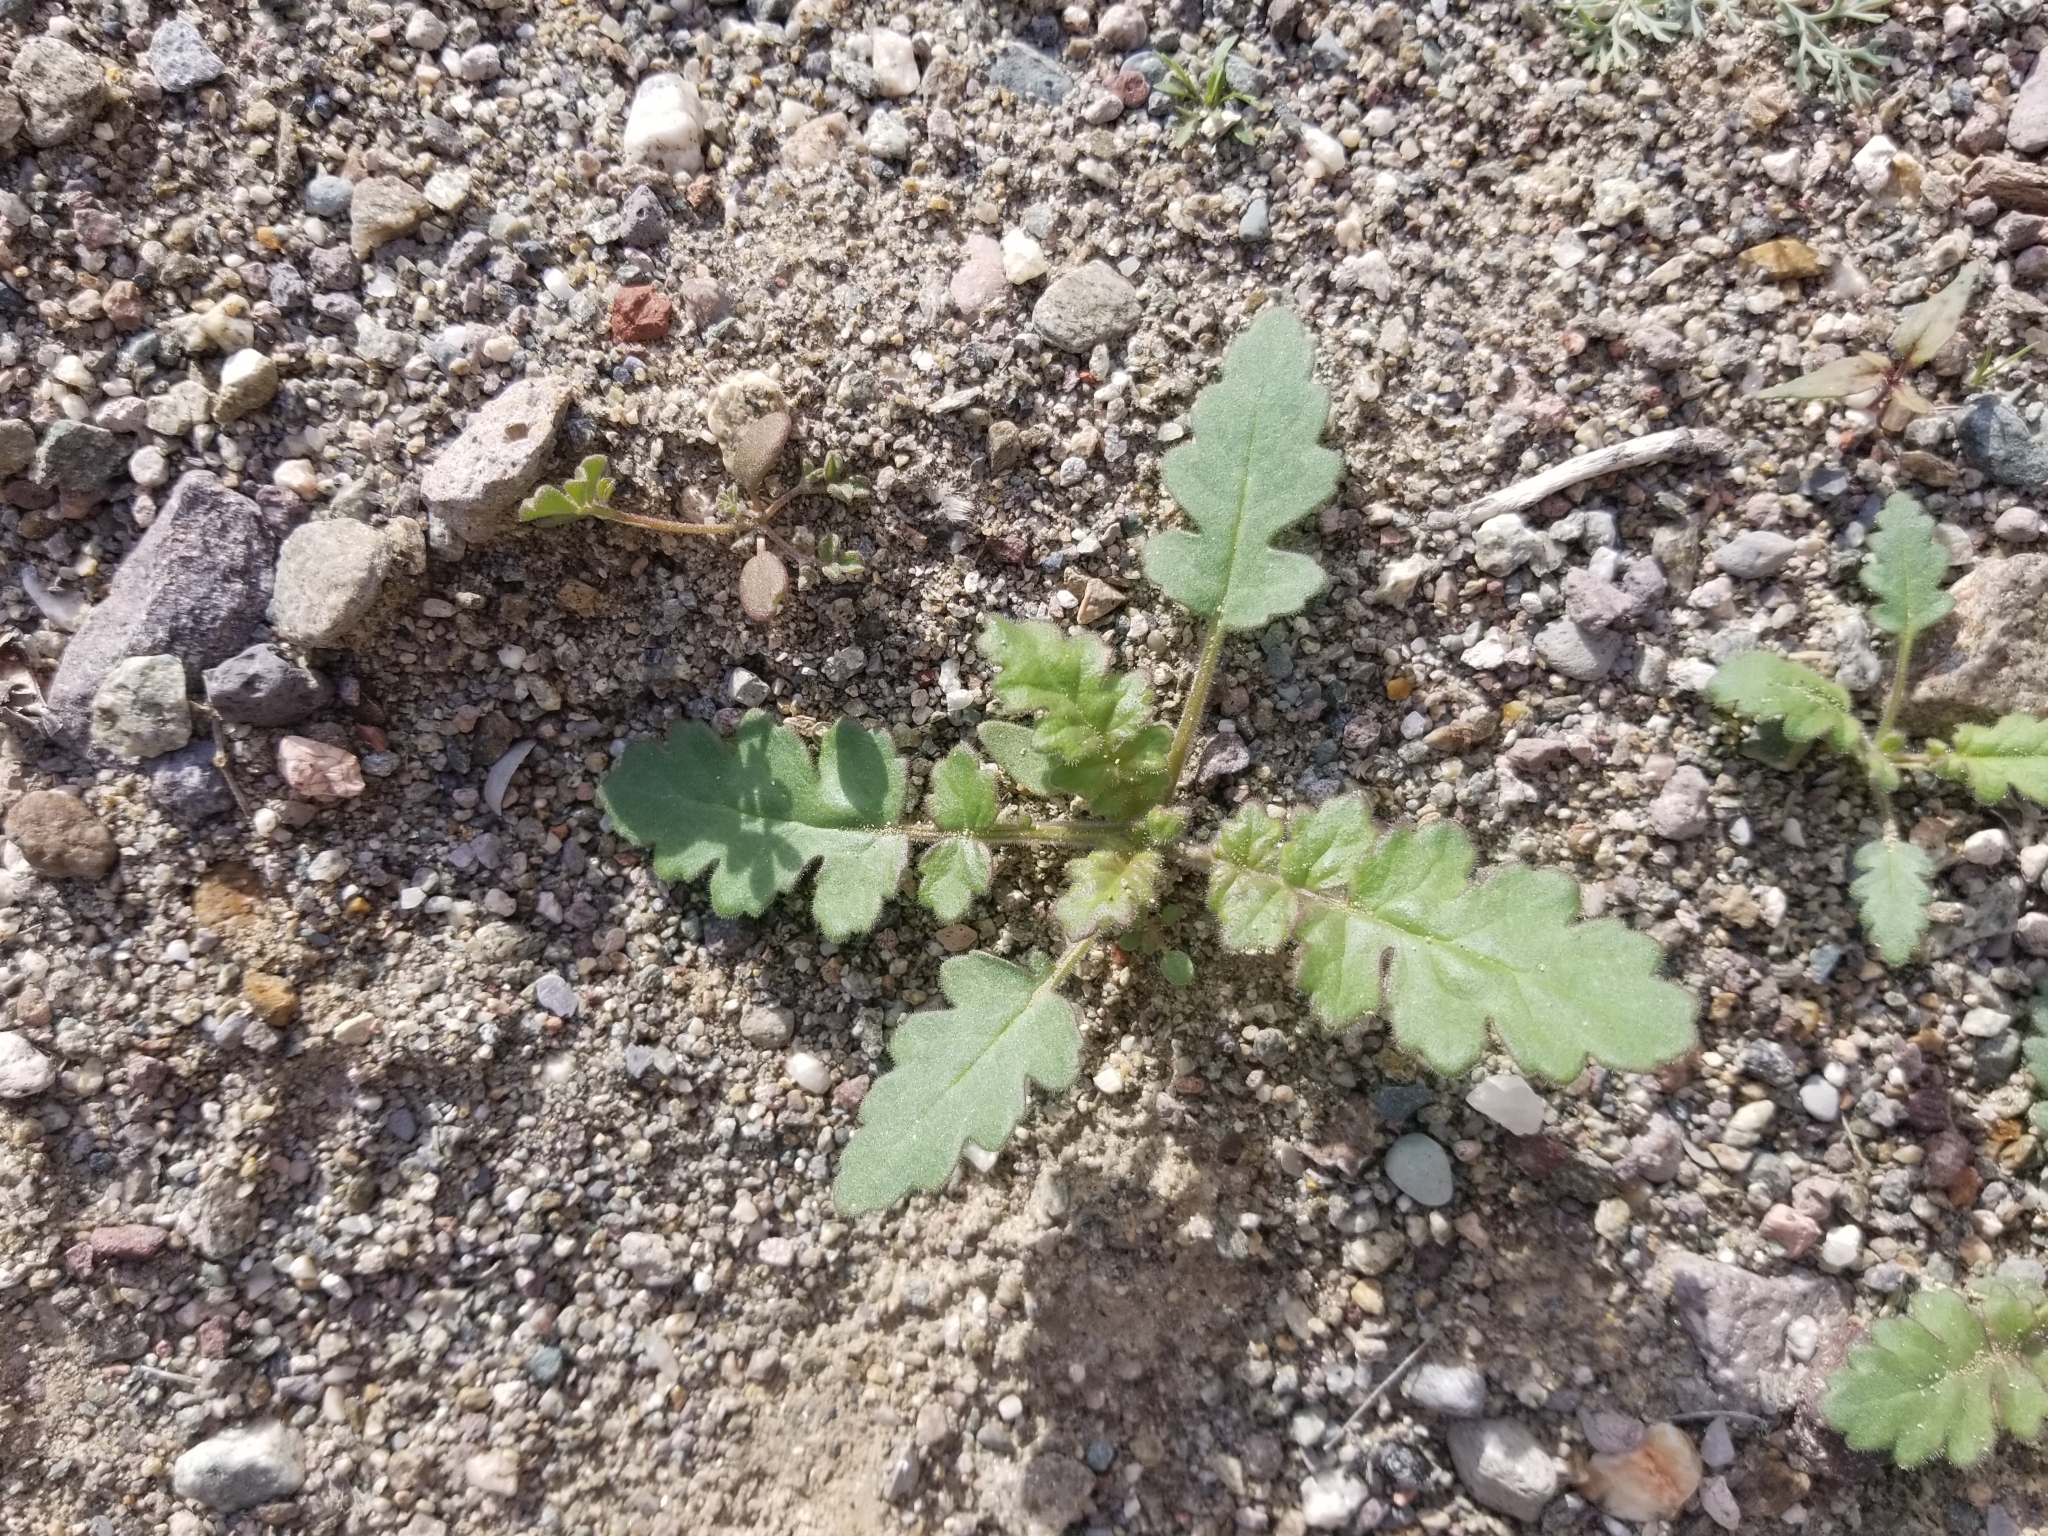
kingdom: Plantae
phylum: Tracheophyta
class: Magnoliopsida
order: Boraginales
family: Hydrophyllaceae
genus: Phacelia
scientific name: Phacelia crenulata
